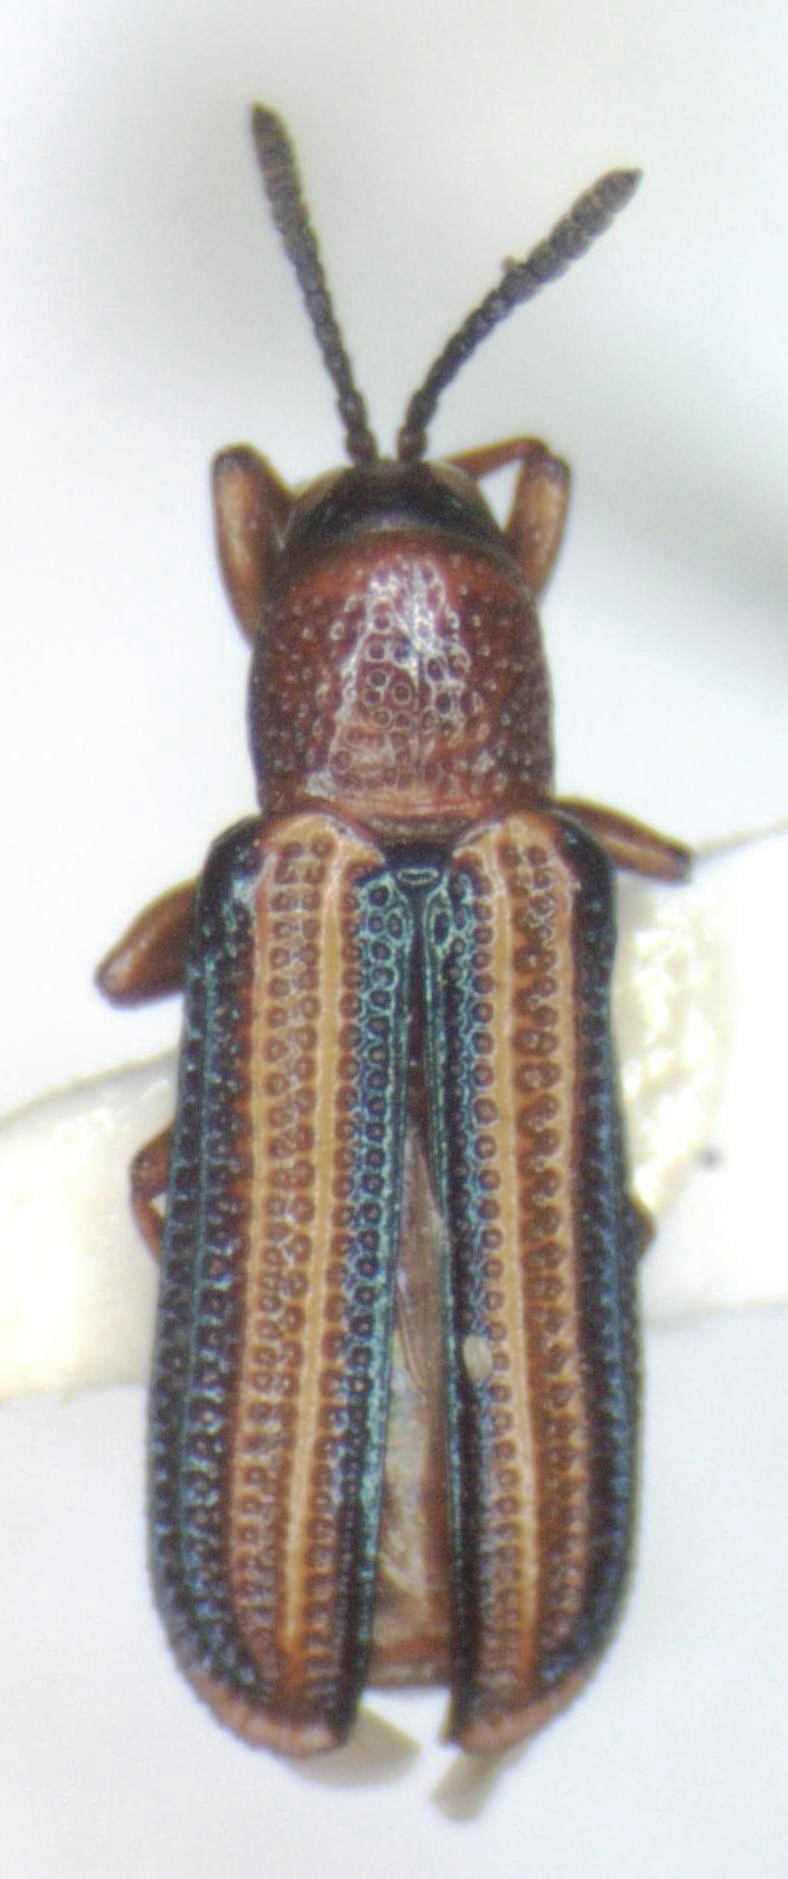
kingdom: Animalia
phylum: Arthropoda
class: Insecta
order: Coleoptera
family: Chrysomelidae
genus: Anisostena
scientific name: Anisostena trilineata
